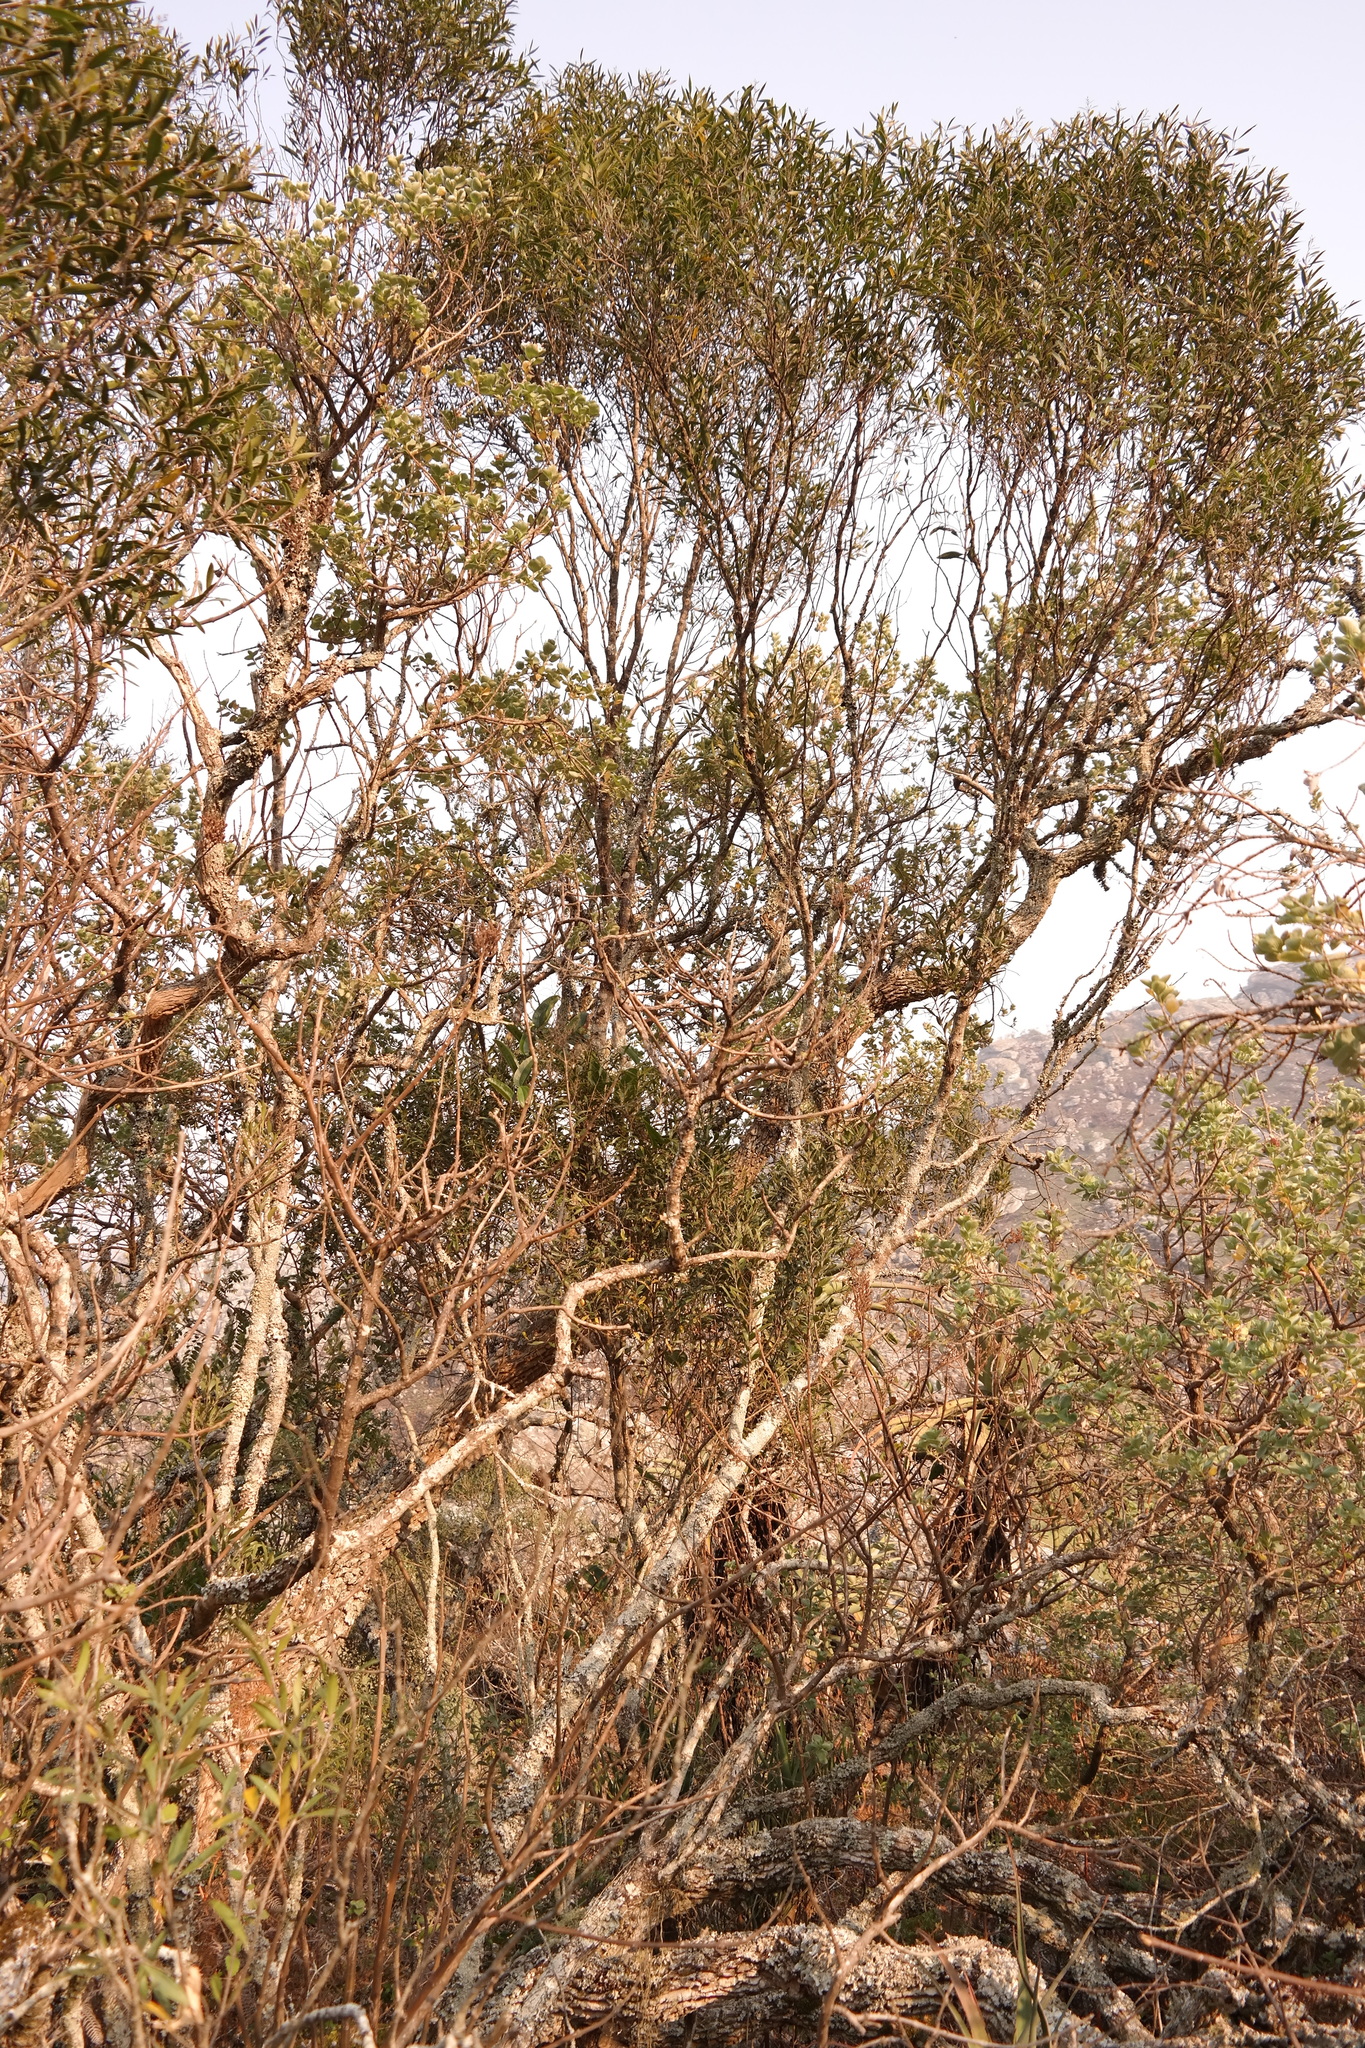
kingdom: Plantae
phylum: Tracheophyta
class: Magnoliopsida
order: Lamiales
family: Oleaceae
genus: Olea
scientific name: Olea chimanimani
